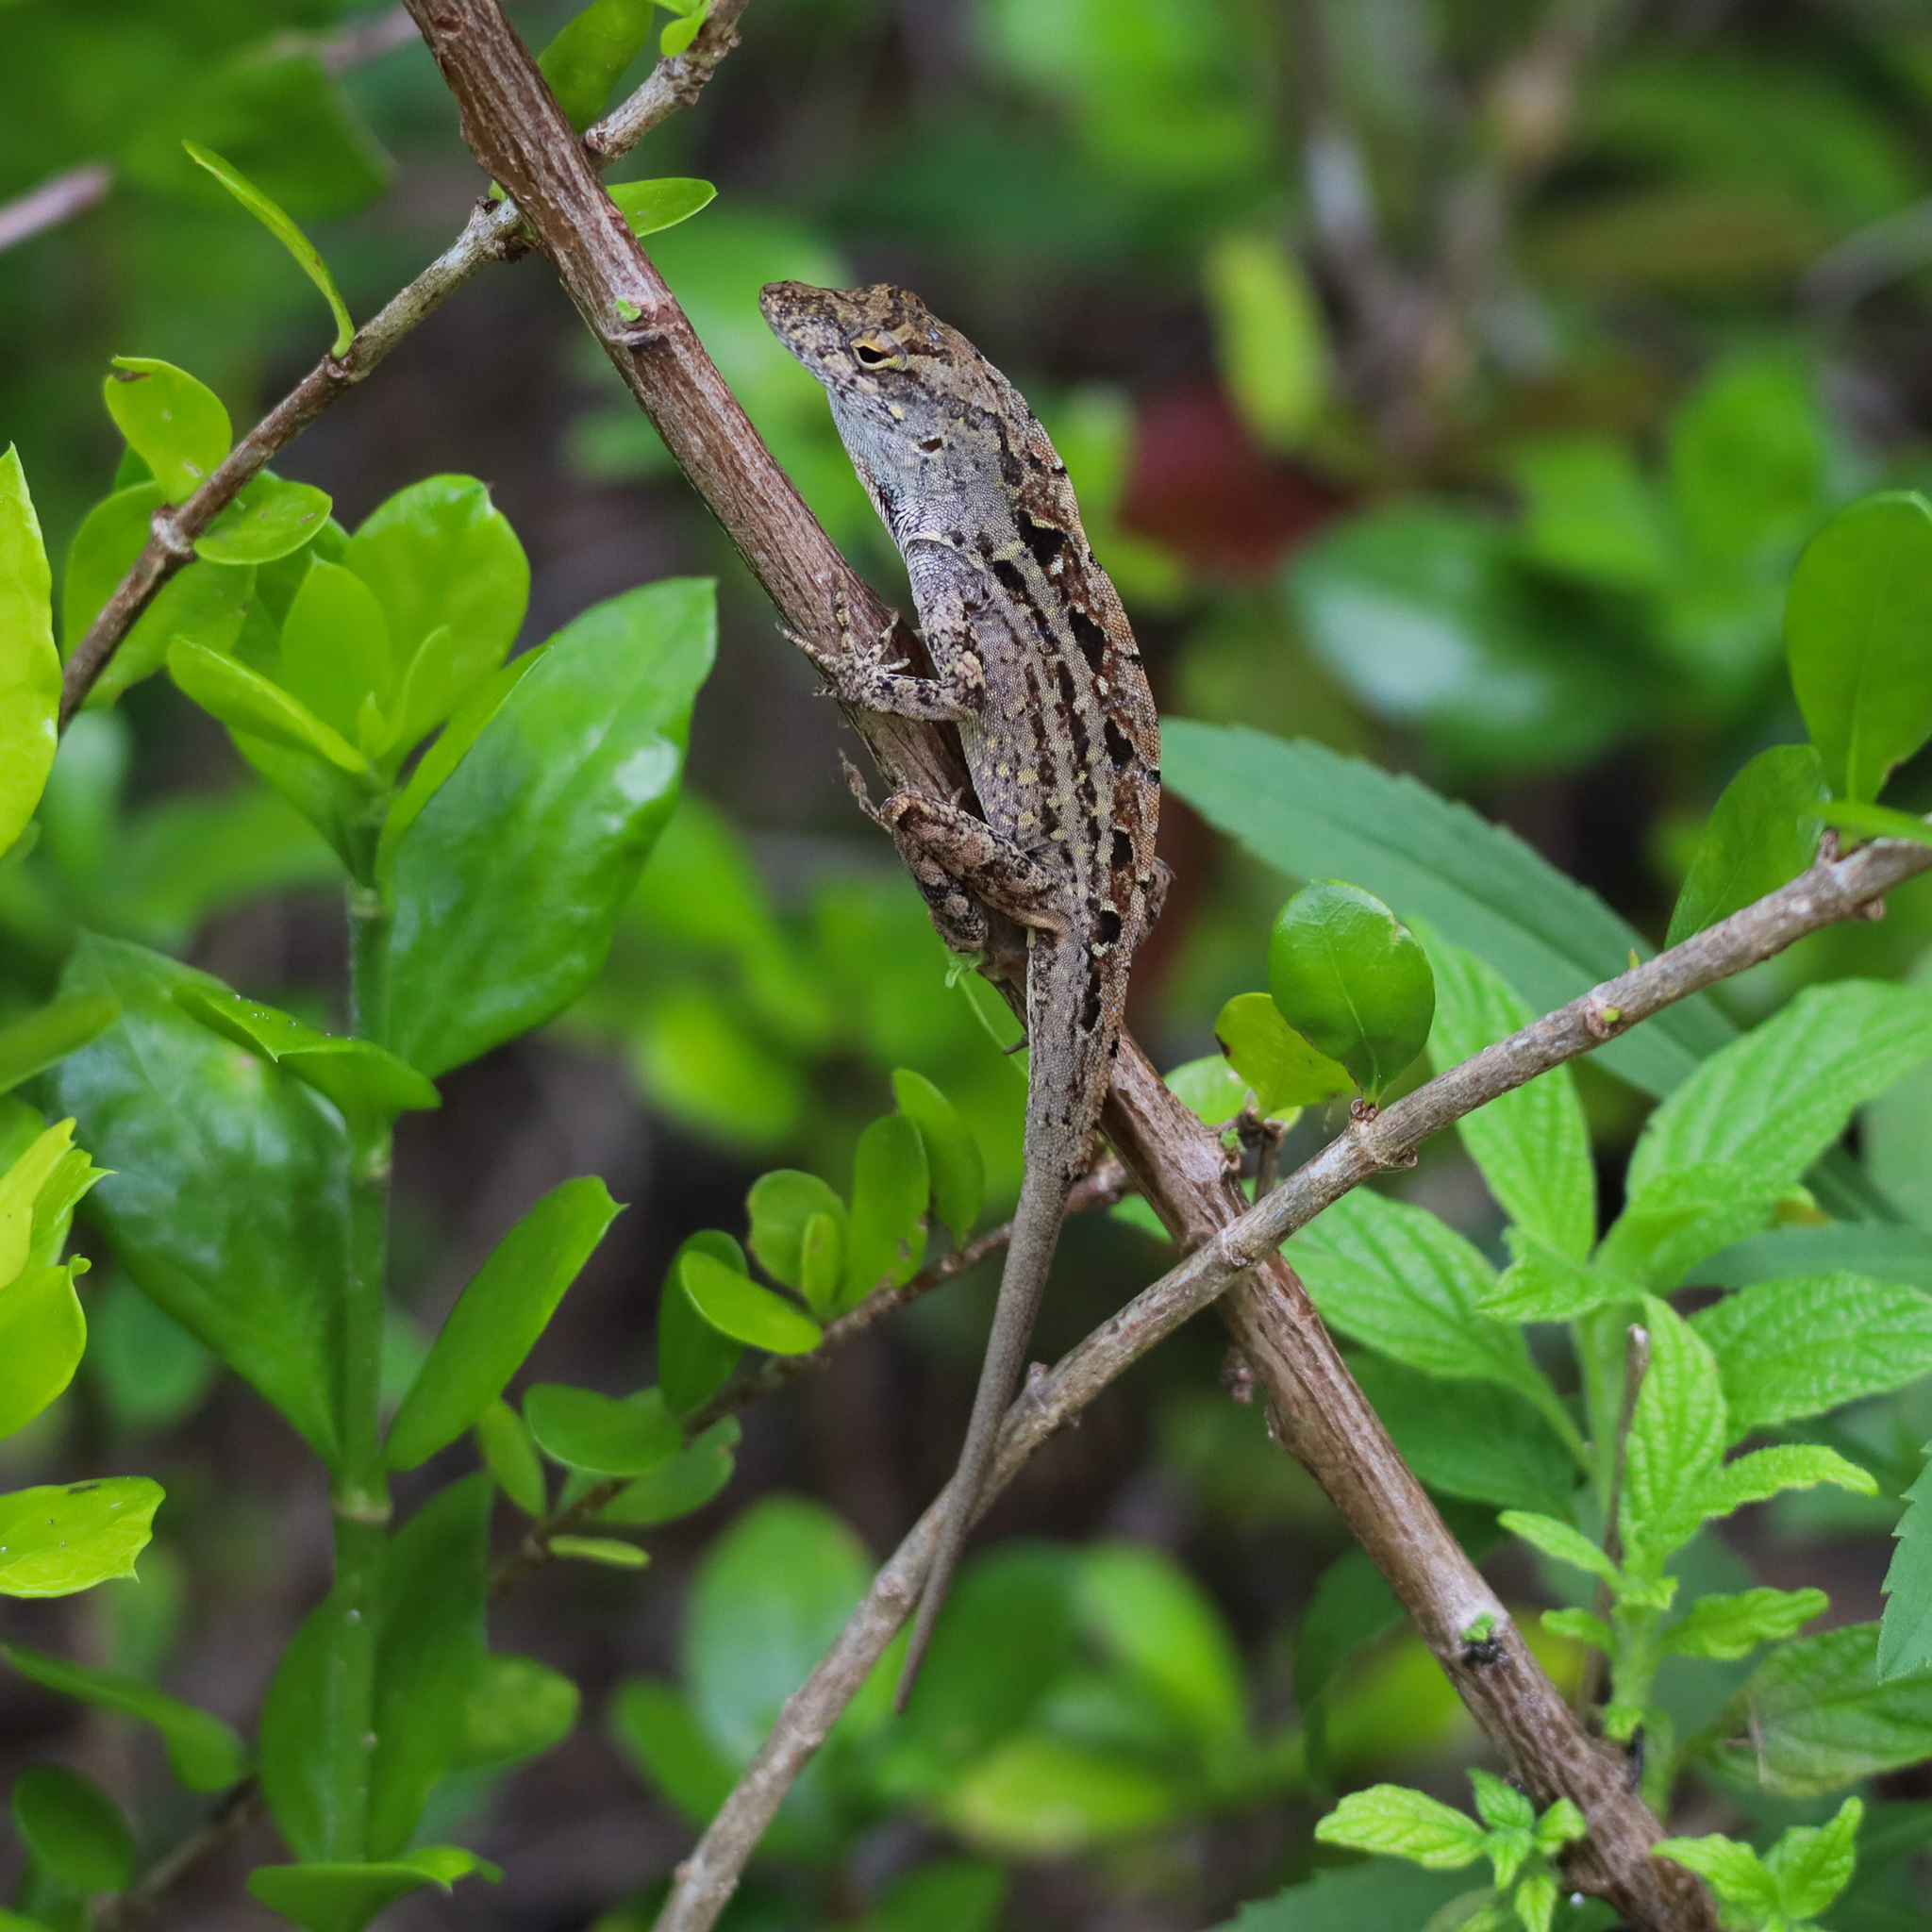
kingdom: Animalia
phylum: Chordata
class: Squamata
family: Dactyloidae
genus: Anolis
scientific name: Anolis sagrei
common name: Brown anole
